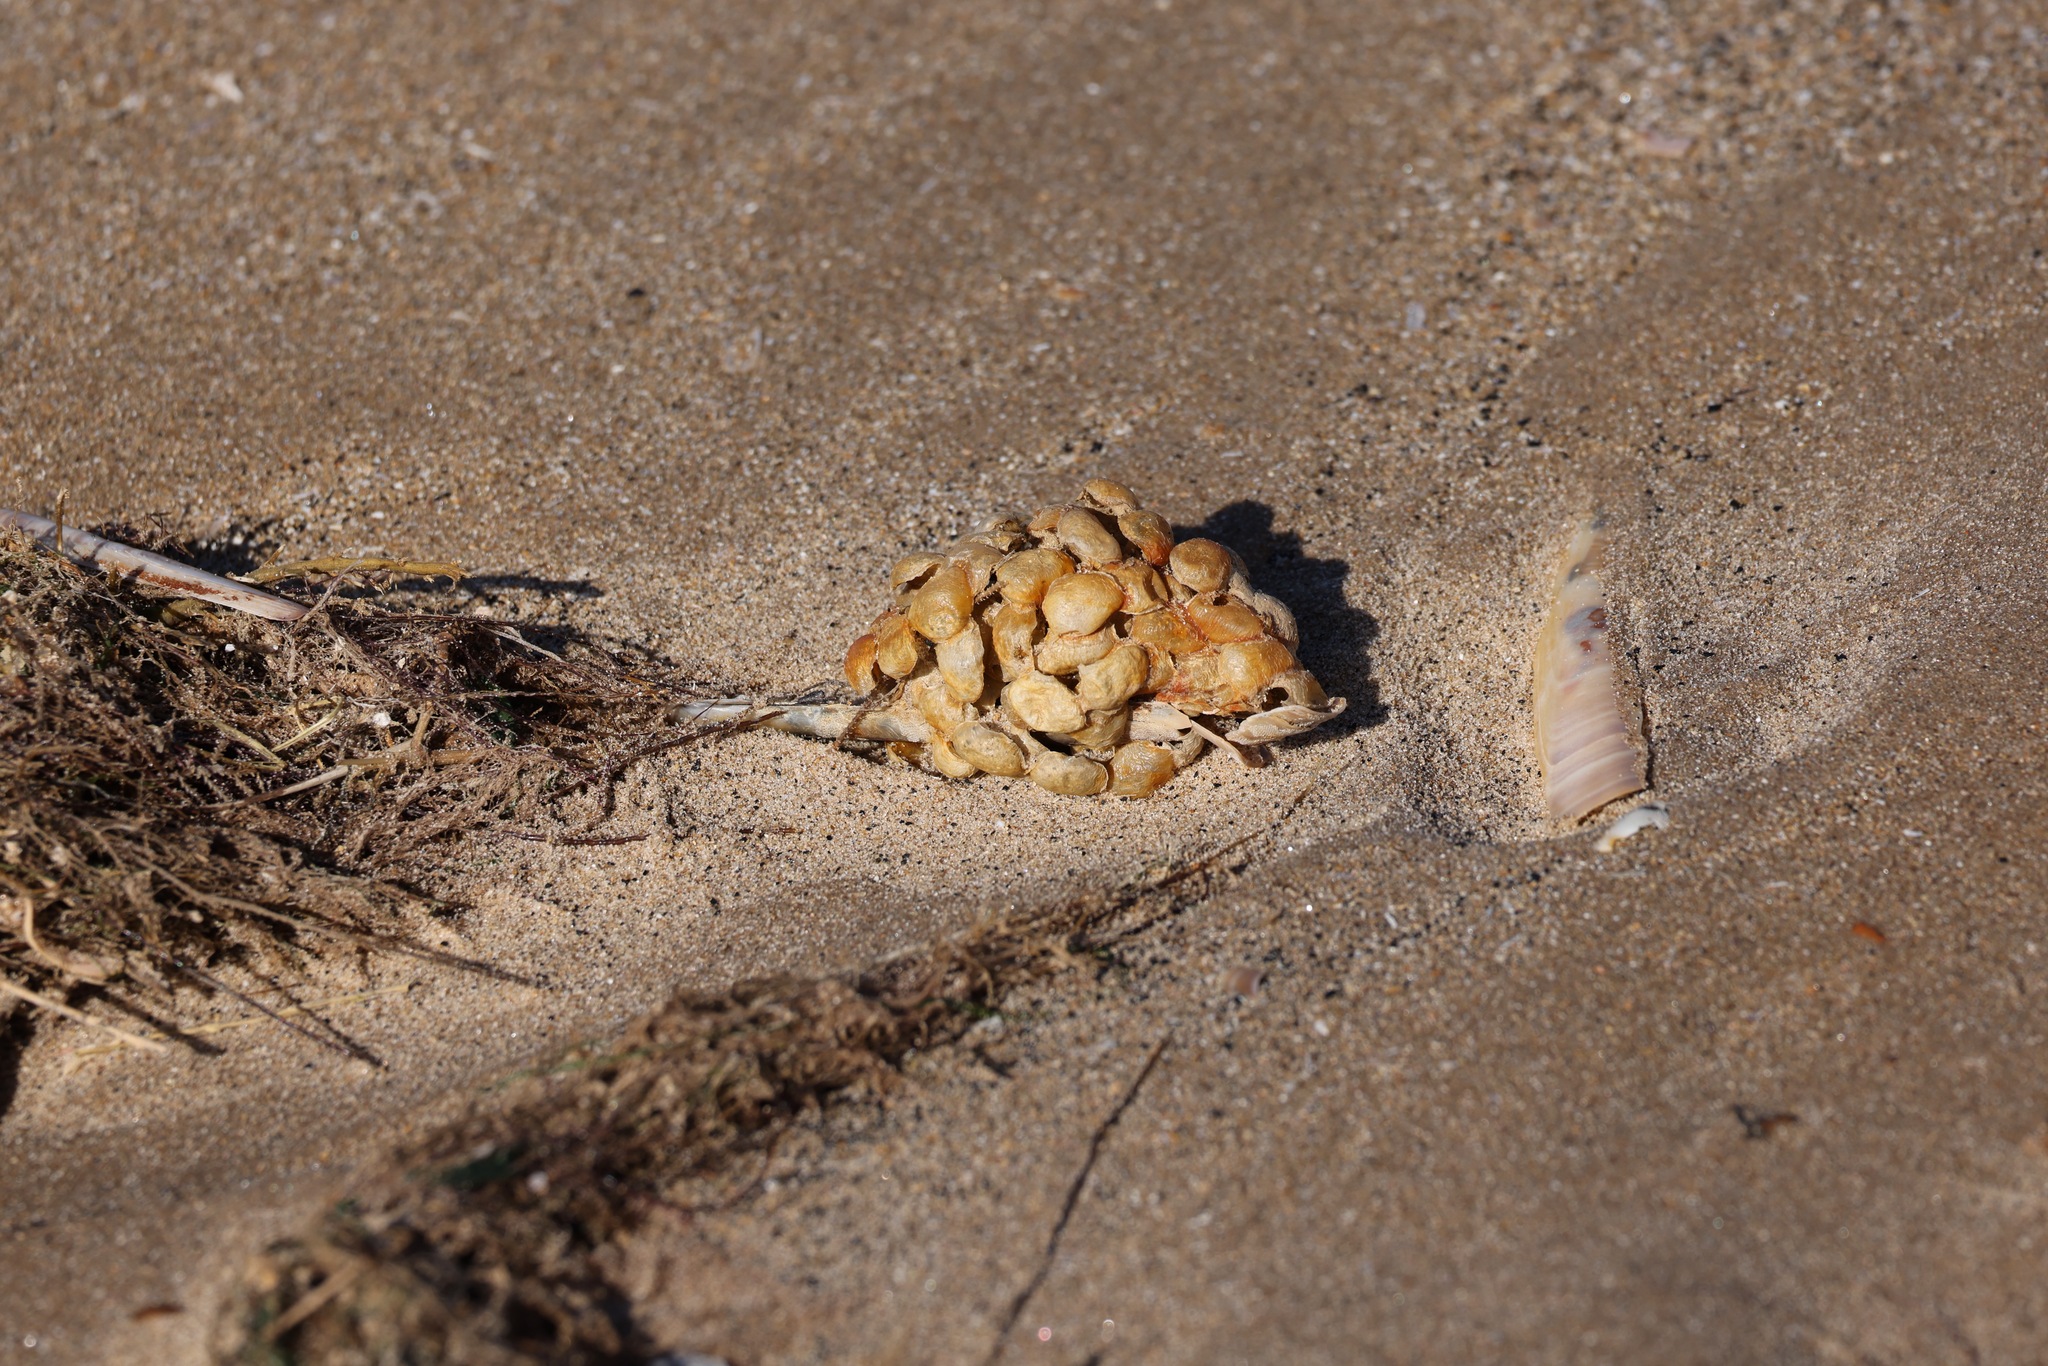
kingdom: Animalia
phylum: Mollusca
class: Gastropoda
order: Neogastropoda
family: Buccinidae
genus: Buccinum
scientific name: Buccinum undatum
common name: Common whelk
